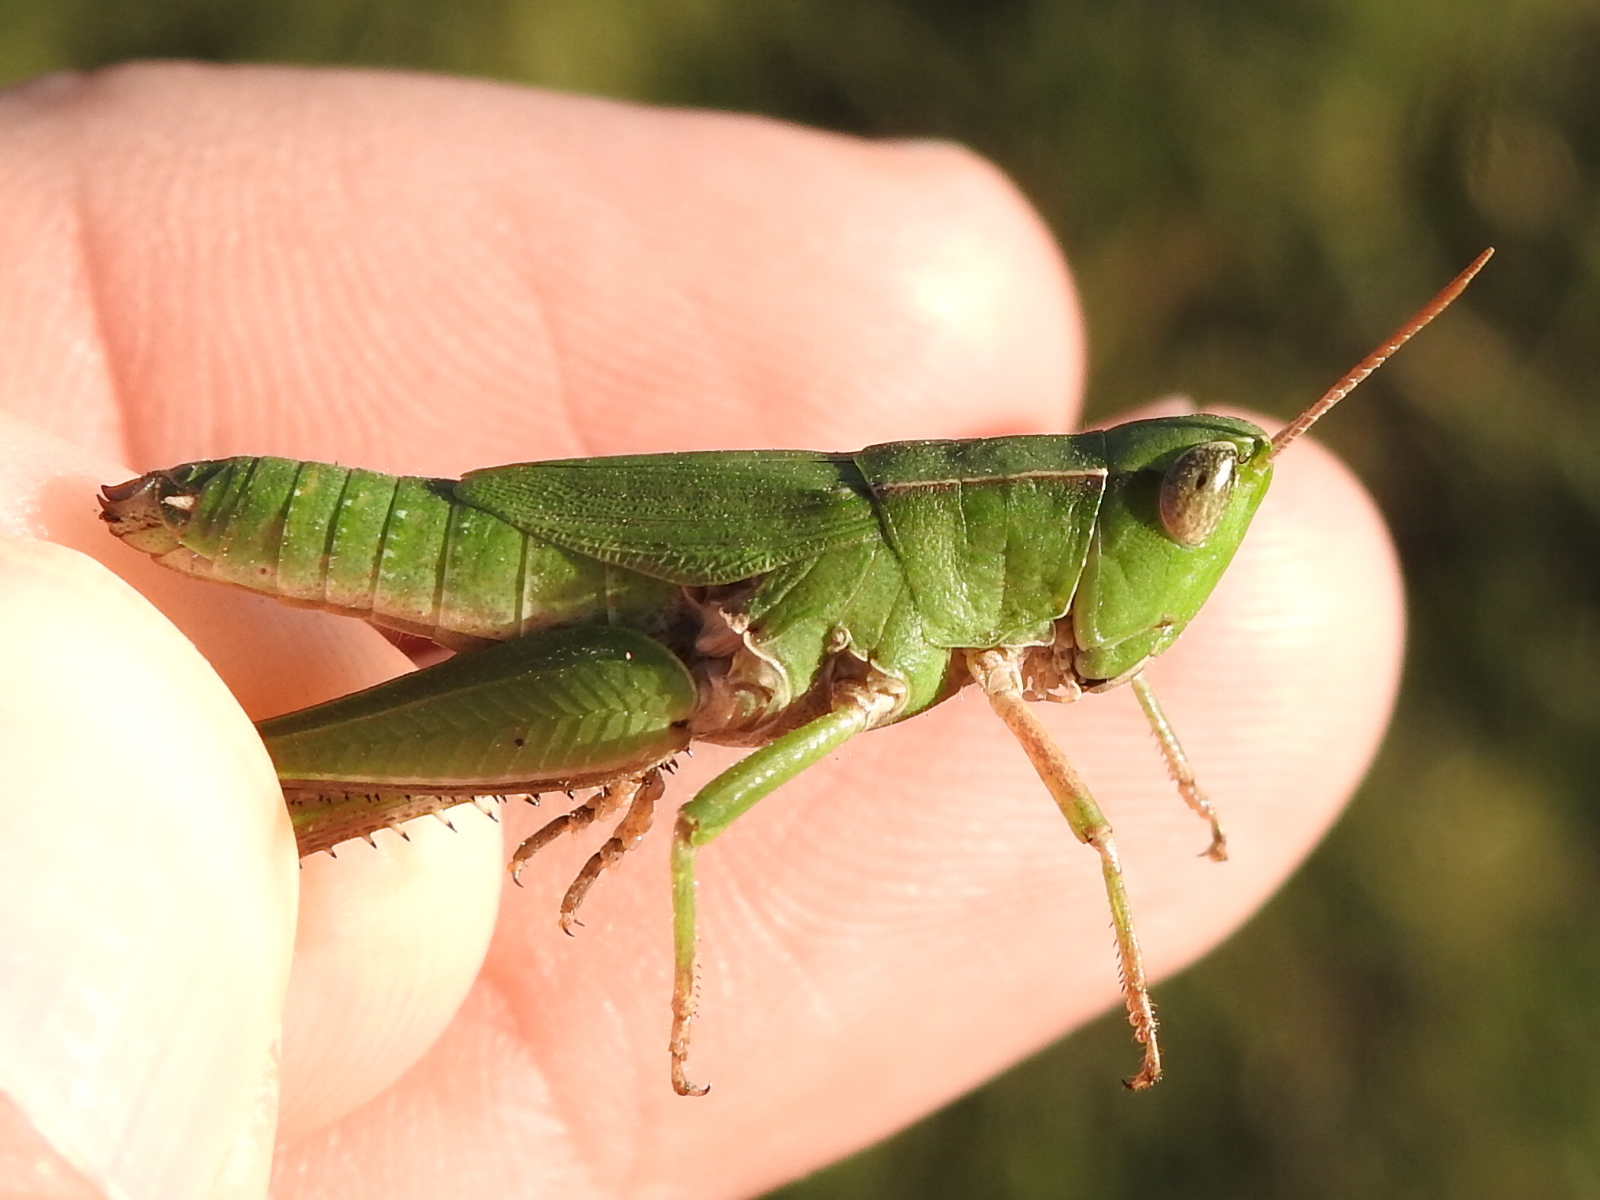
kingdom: Animalia
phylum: Arthropoda
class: Insecta
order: Orthoptera
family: Acrididae
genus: Dichromorpha
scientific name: Dichromorpha viridis
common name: Short-winged green grasshopper
